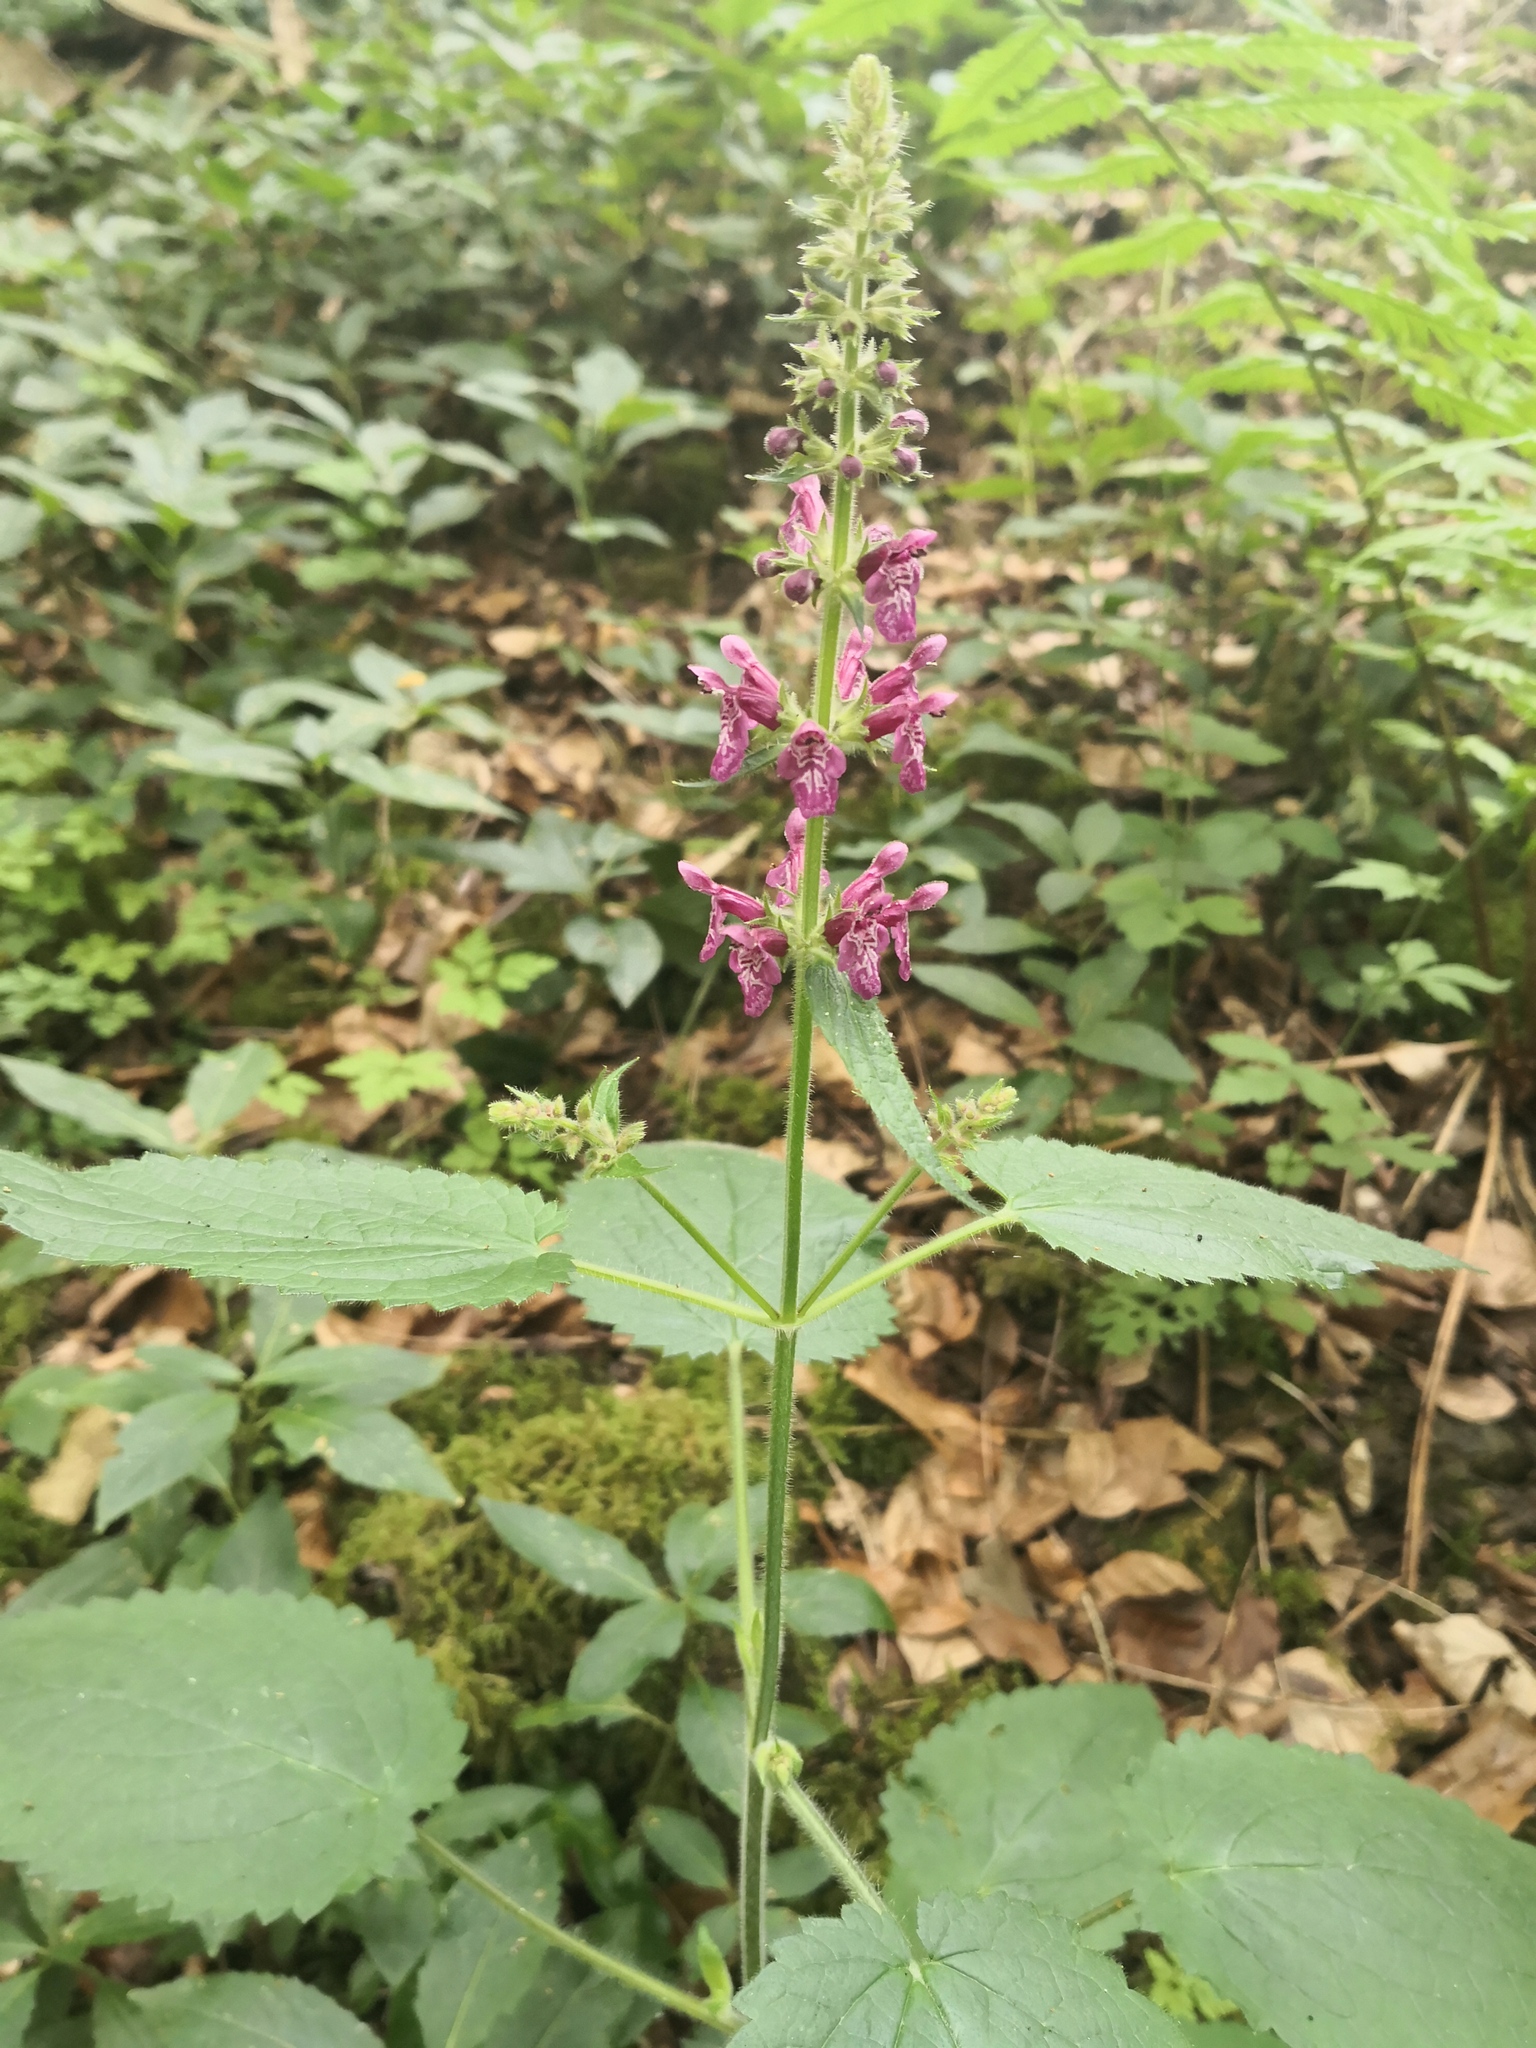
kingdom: Plantae
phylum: Tracheophyta
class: Magnoliopsida
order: Lamiales
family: Lamiaceae
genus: Stachys
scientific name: Stachys sylvatica
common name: Hedge woundwort
